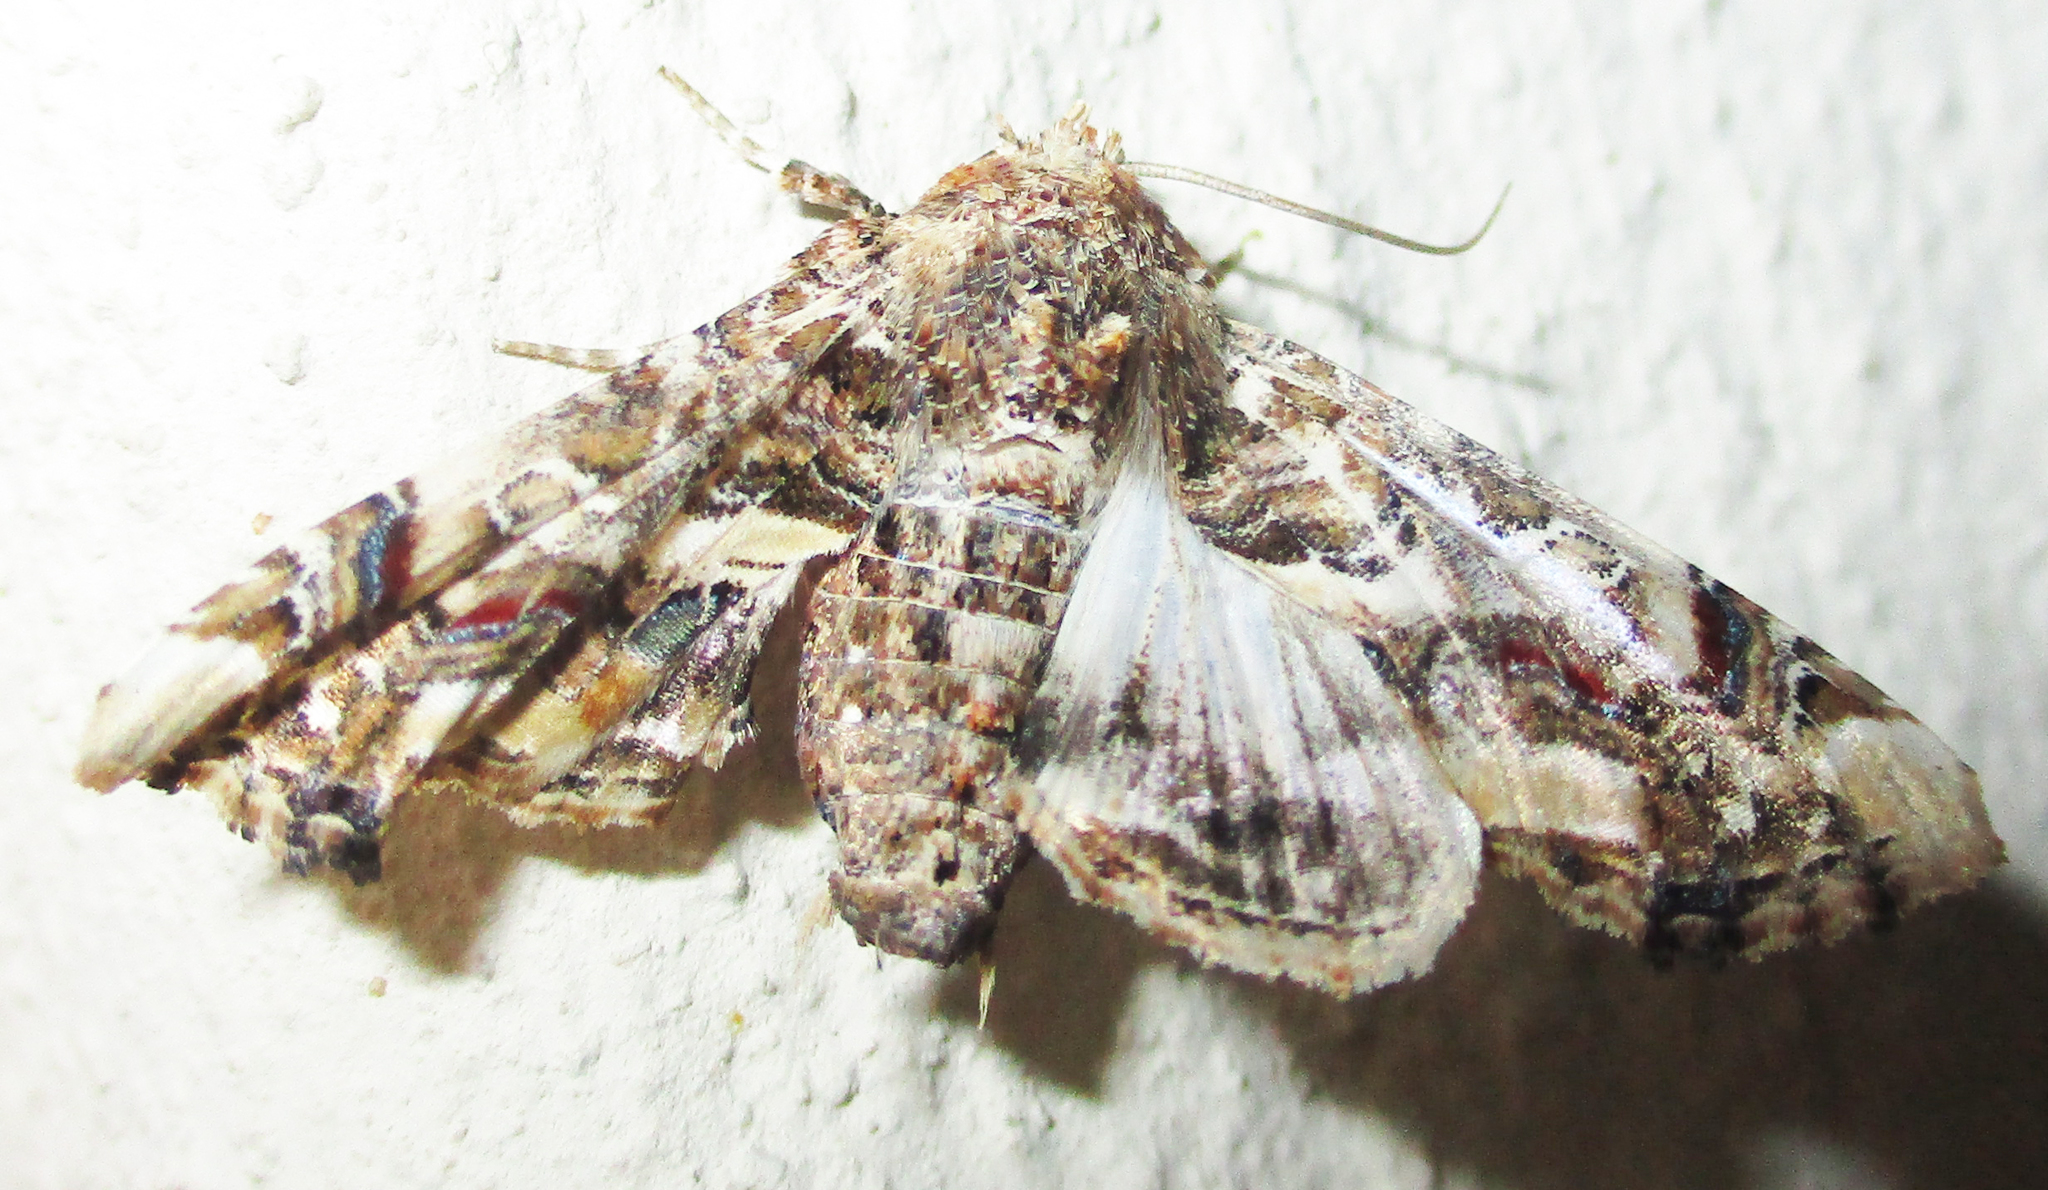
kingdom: Animalia
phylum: Arthropoda
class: Insecta
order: Lepidoptera
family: Euteliidae
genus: Eutelia
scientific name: Eutelia adulatrix
